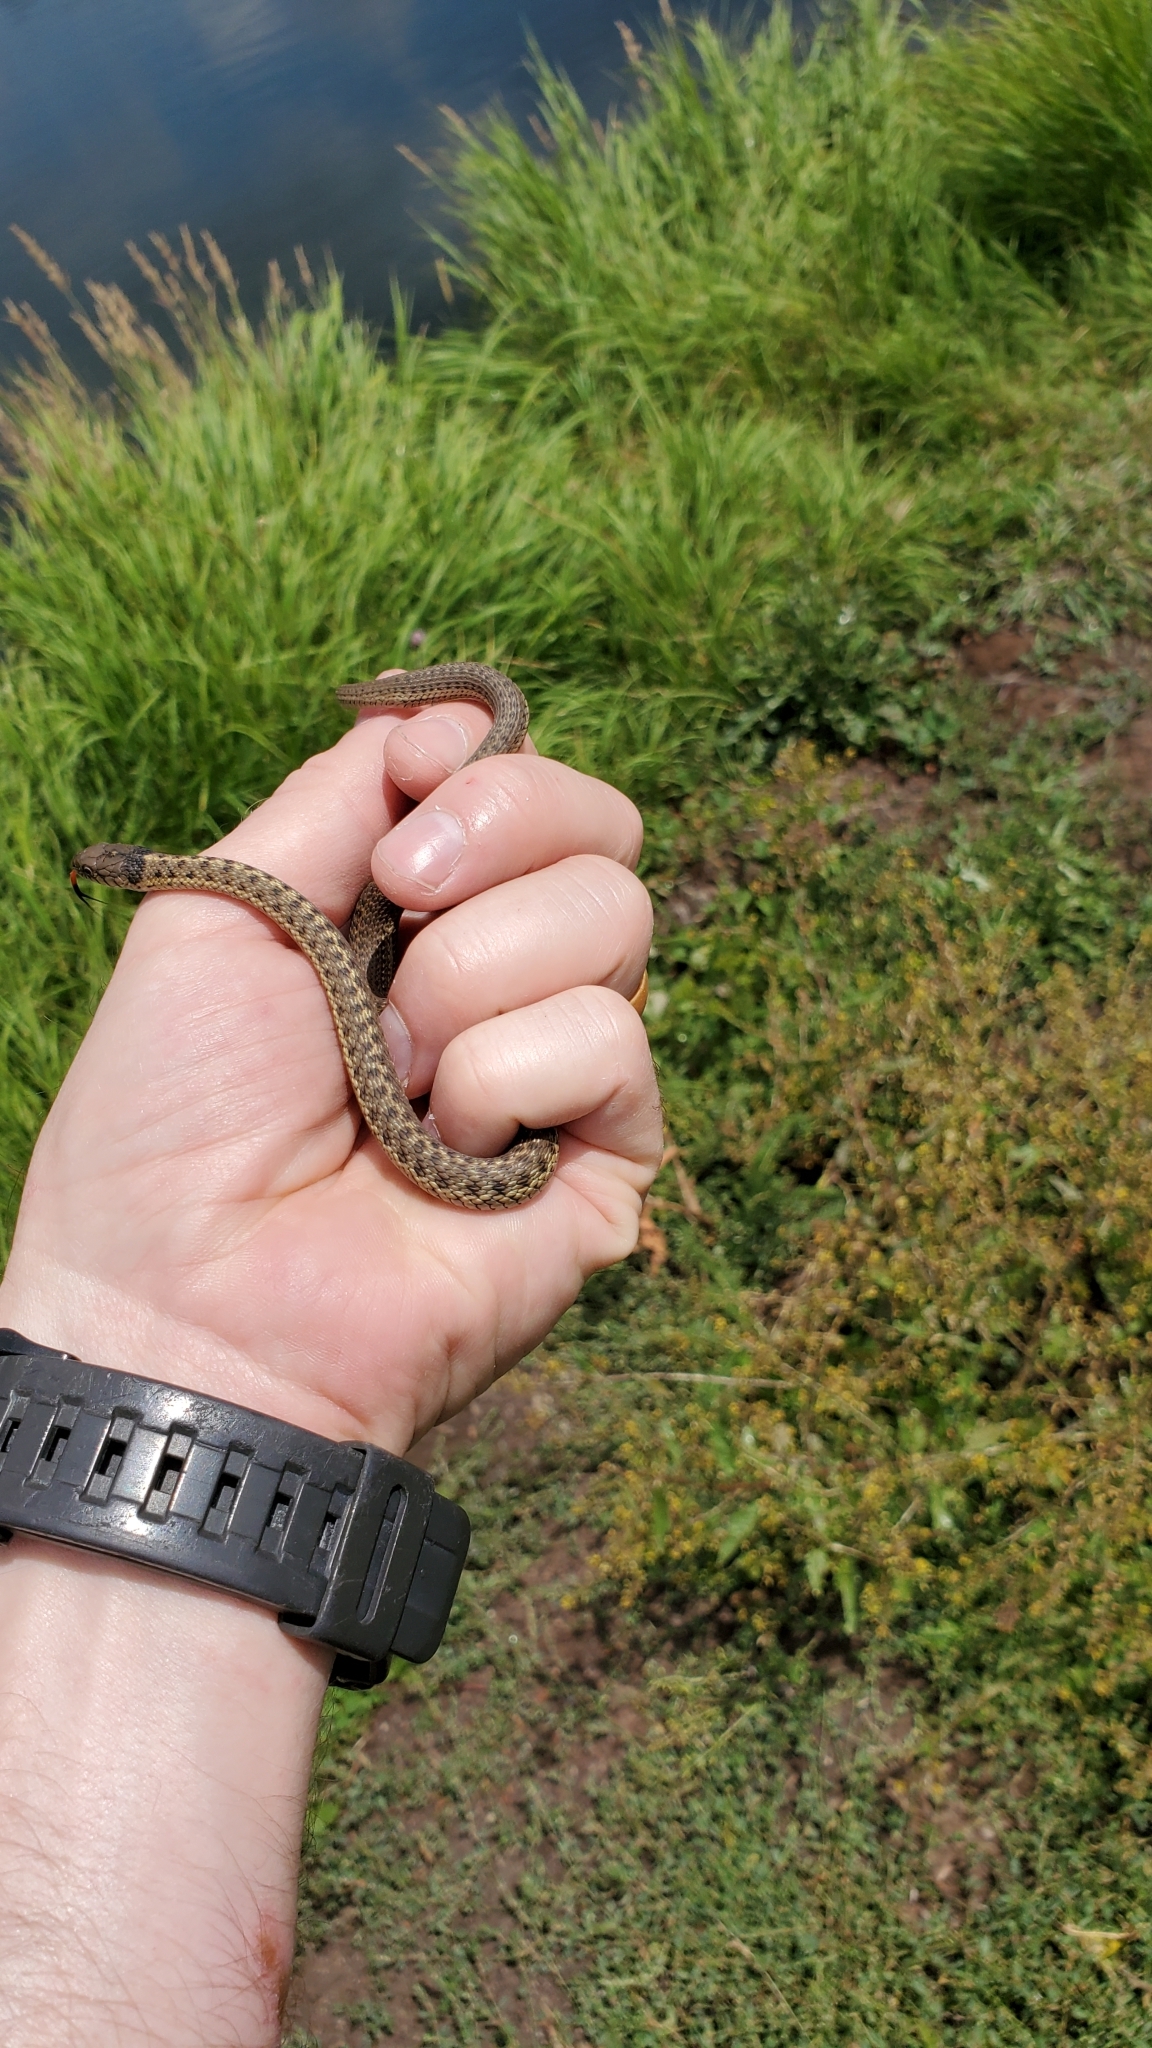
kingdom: Animalia
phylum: Chordata
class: Squamata
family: Colubridae
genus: Thamnophis
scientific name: Thamnophis elegans
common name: Western terrestrial garter snake
